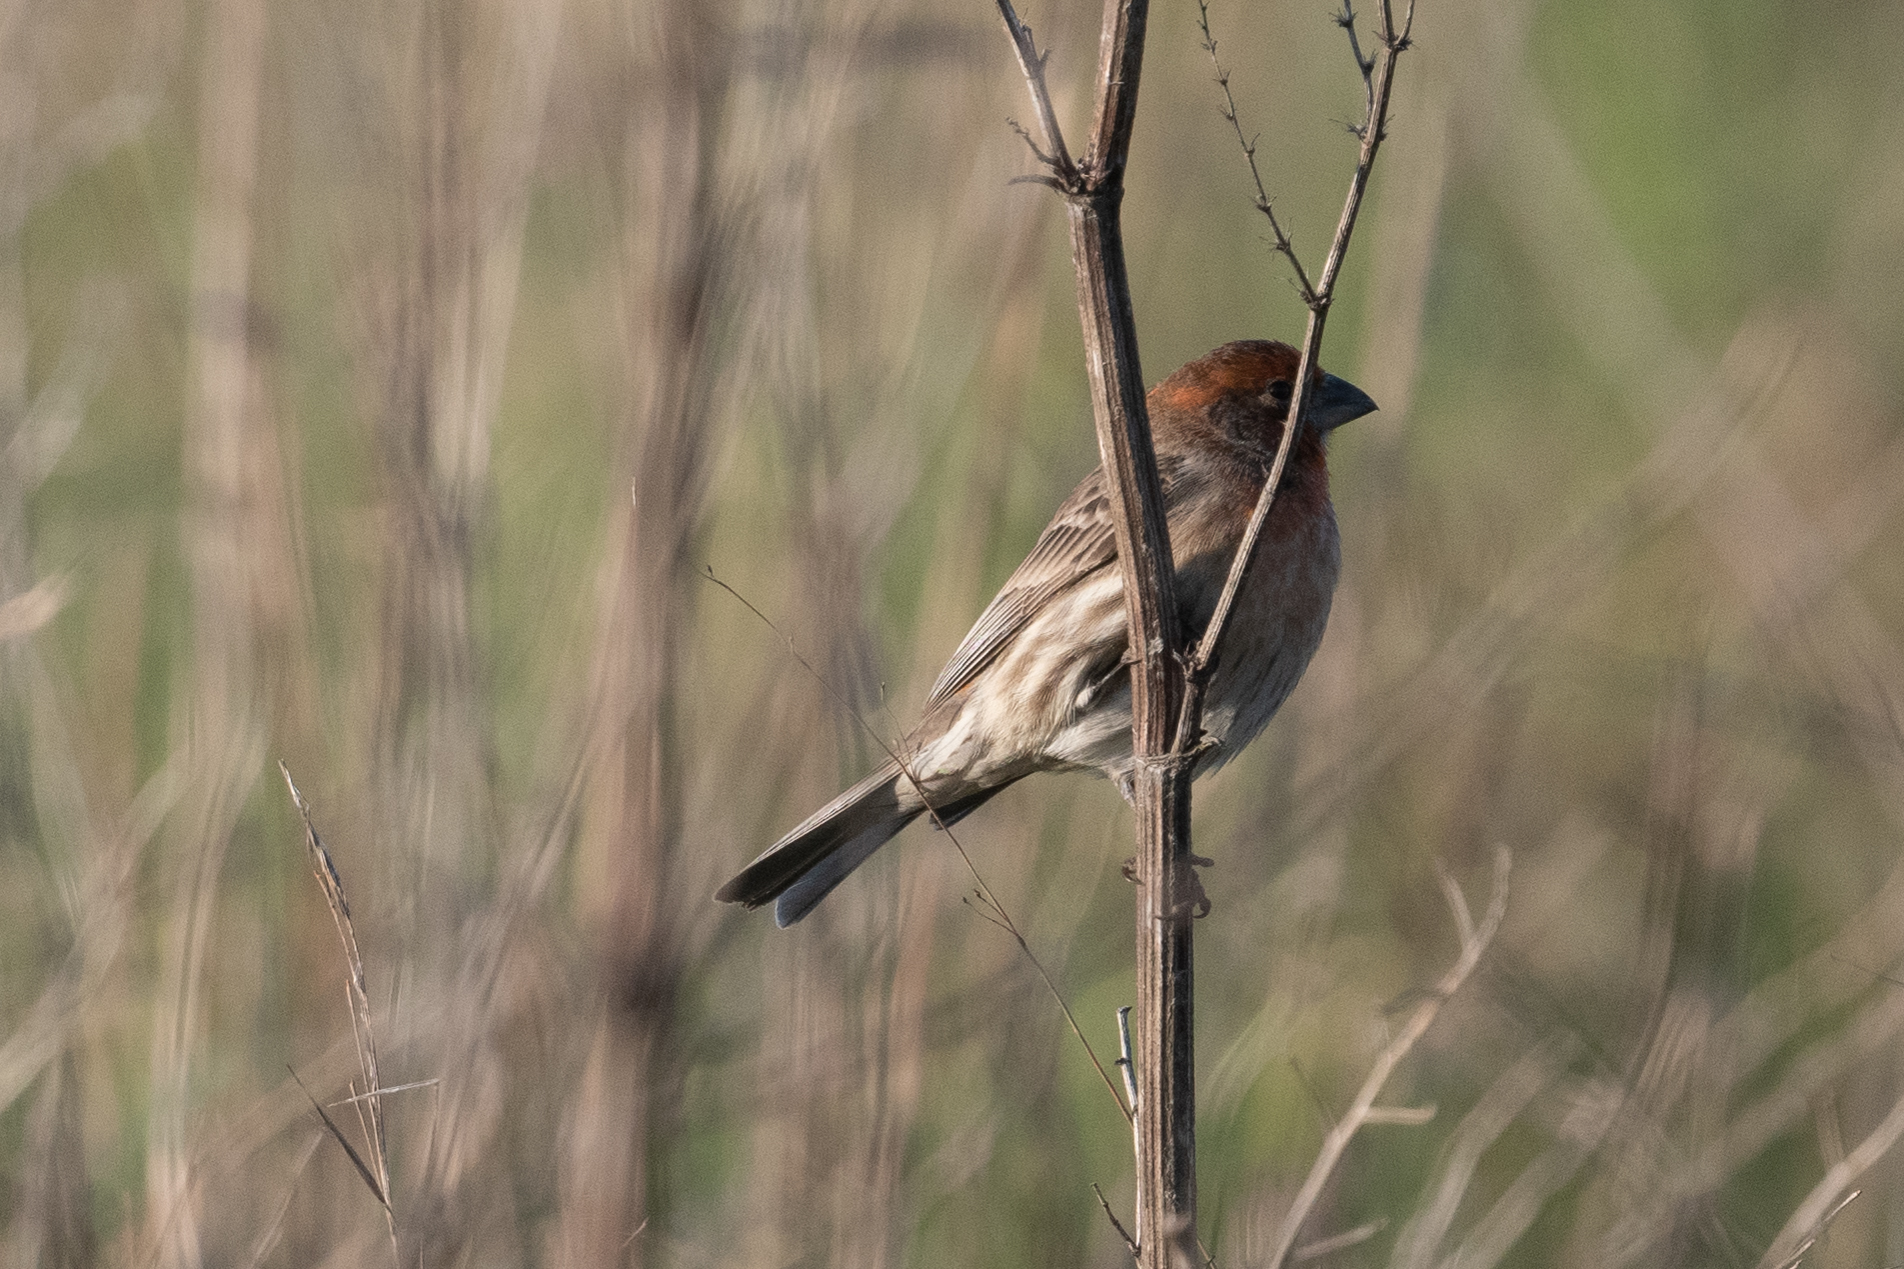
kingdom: Animalia
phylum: Chordata
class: Aves
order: Passeriformes
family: Fringillidae
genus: Haemorhous
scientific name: Haemorhous mexicanus
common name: House finch
